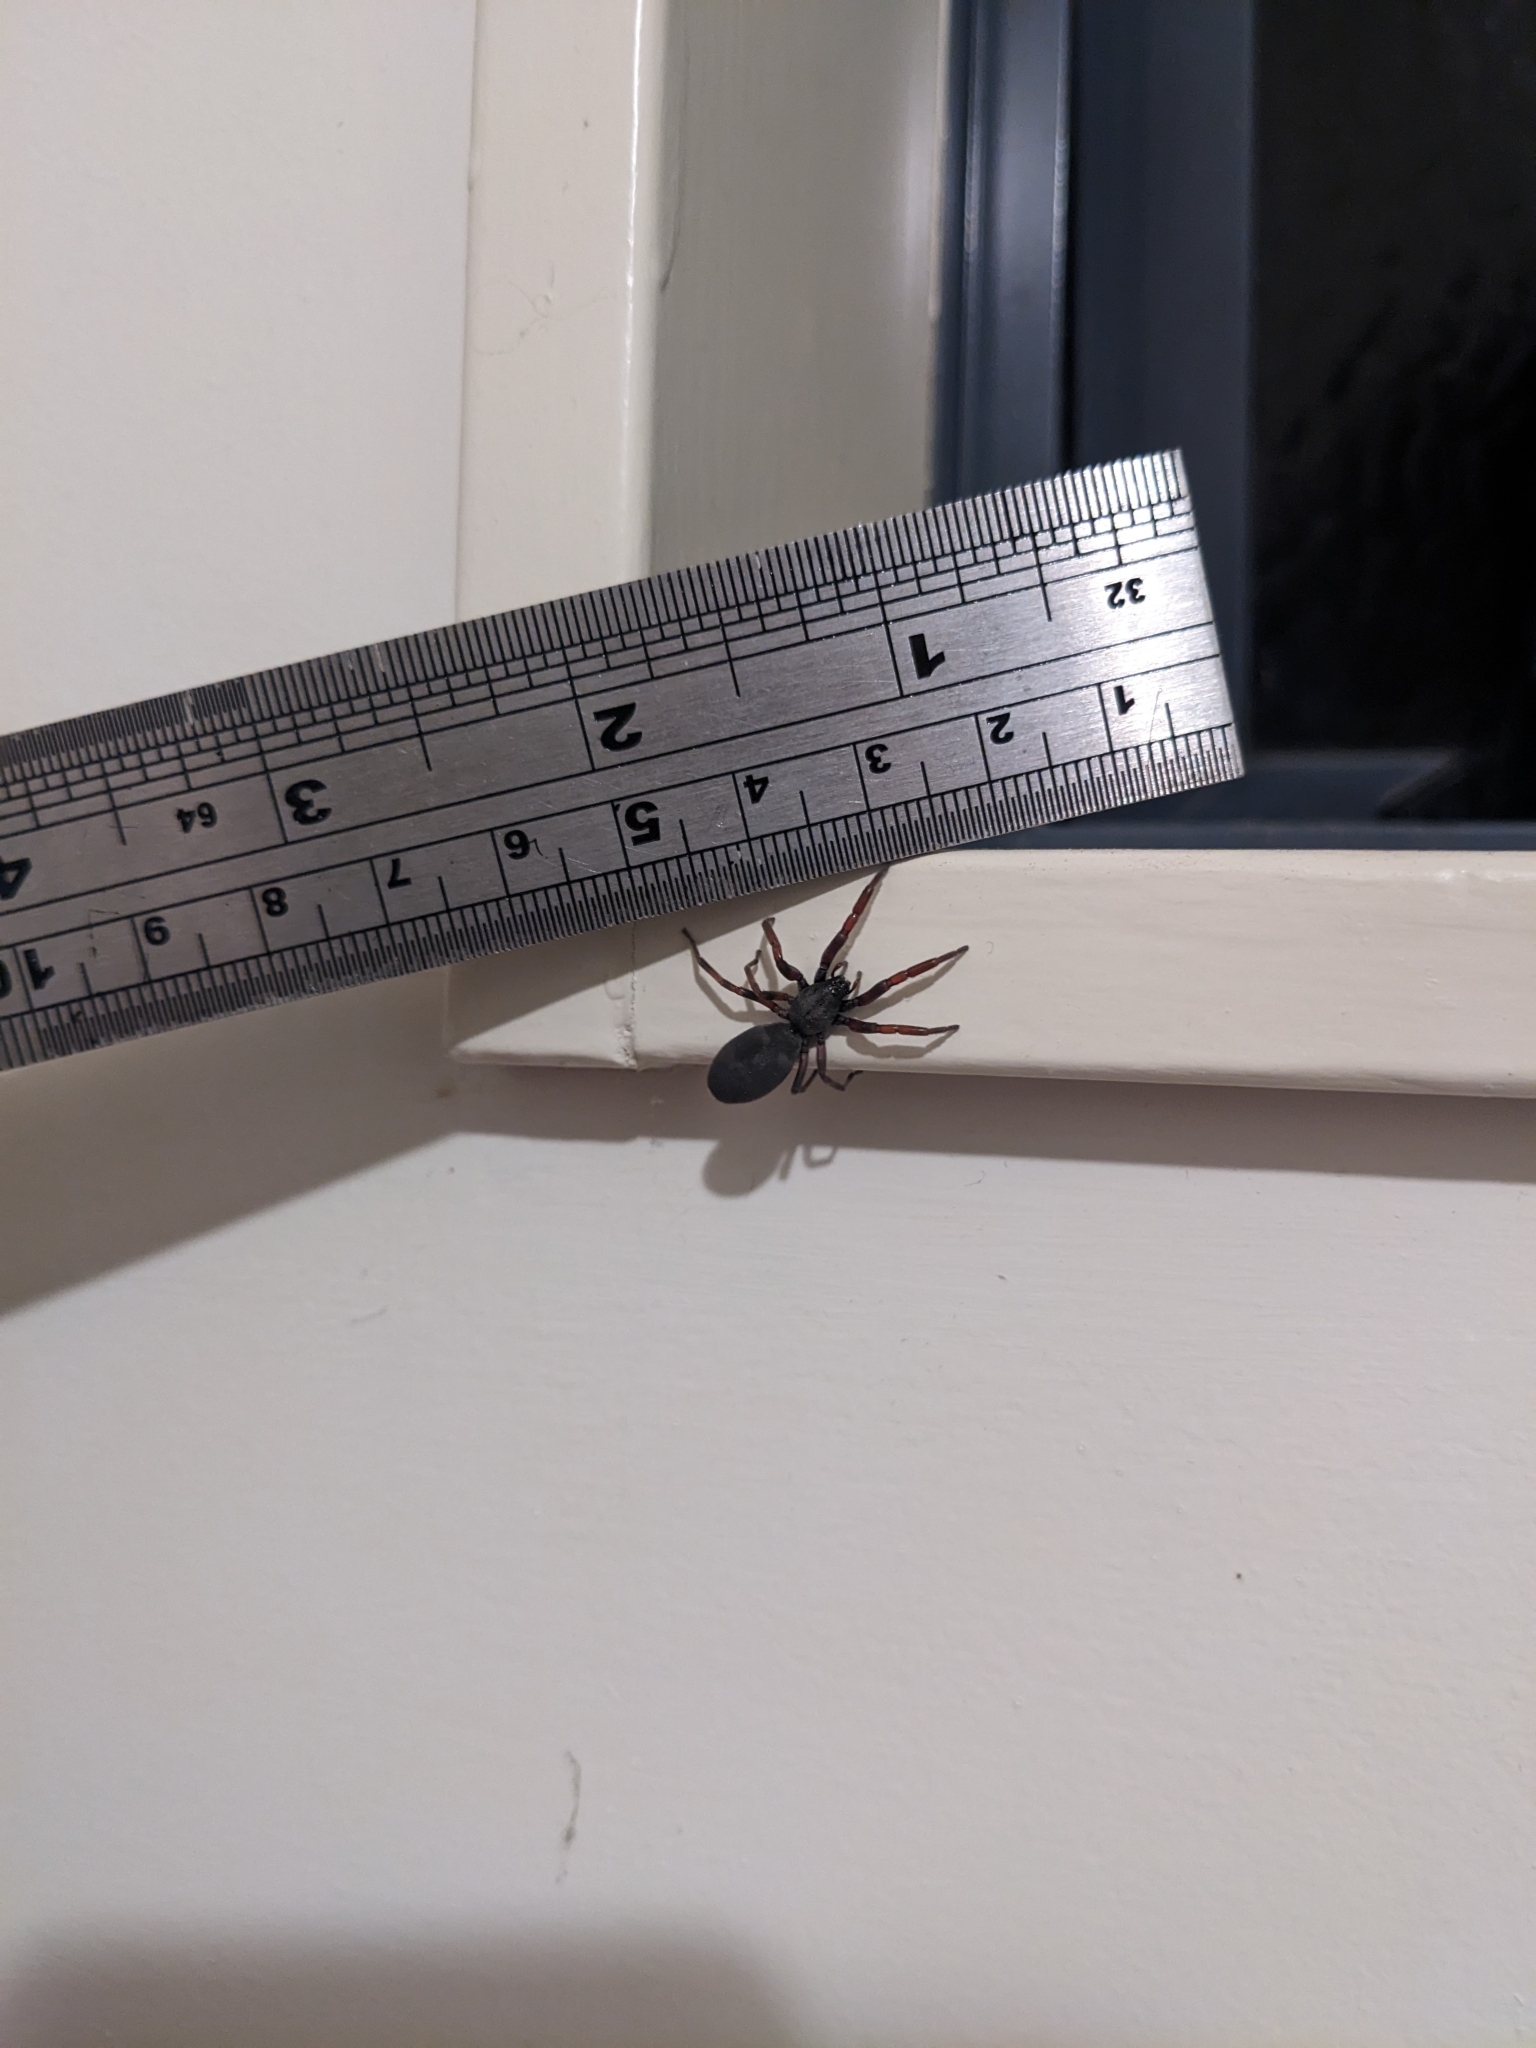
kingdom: Animalia
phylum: Arthropoda
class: Arachnida
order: Araneae
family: Lamponidae
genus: Lampona
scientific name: Lampona murina
